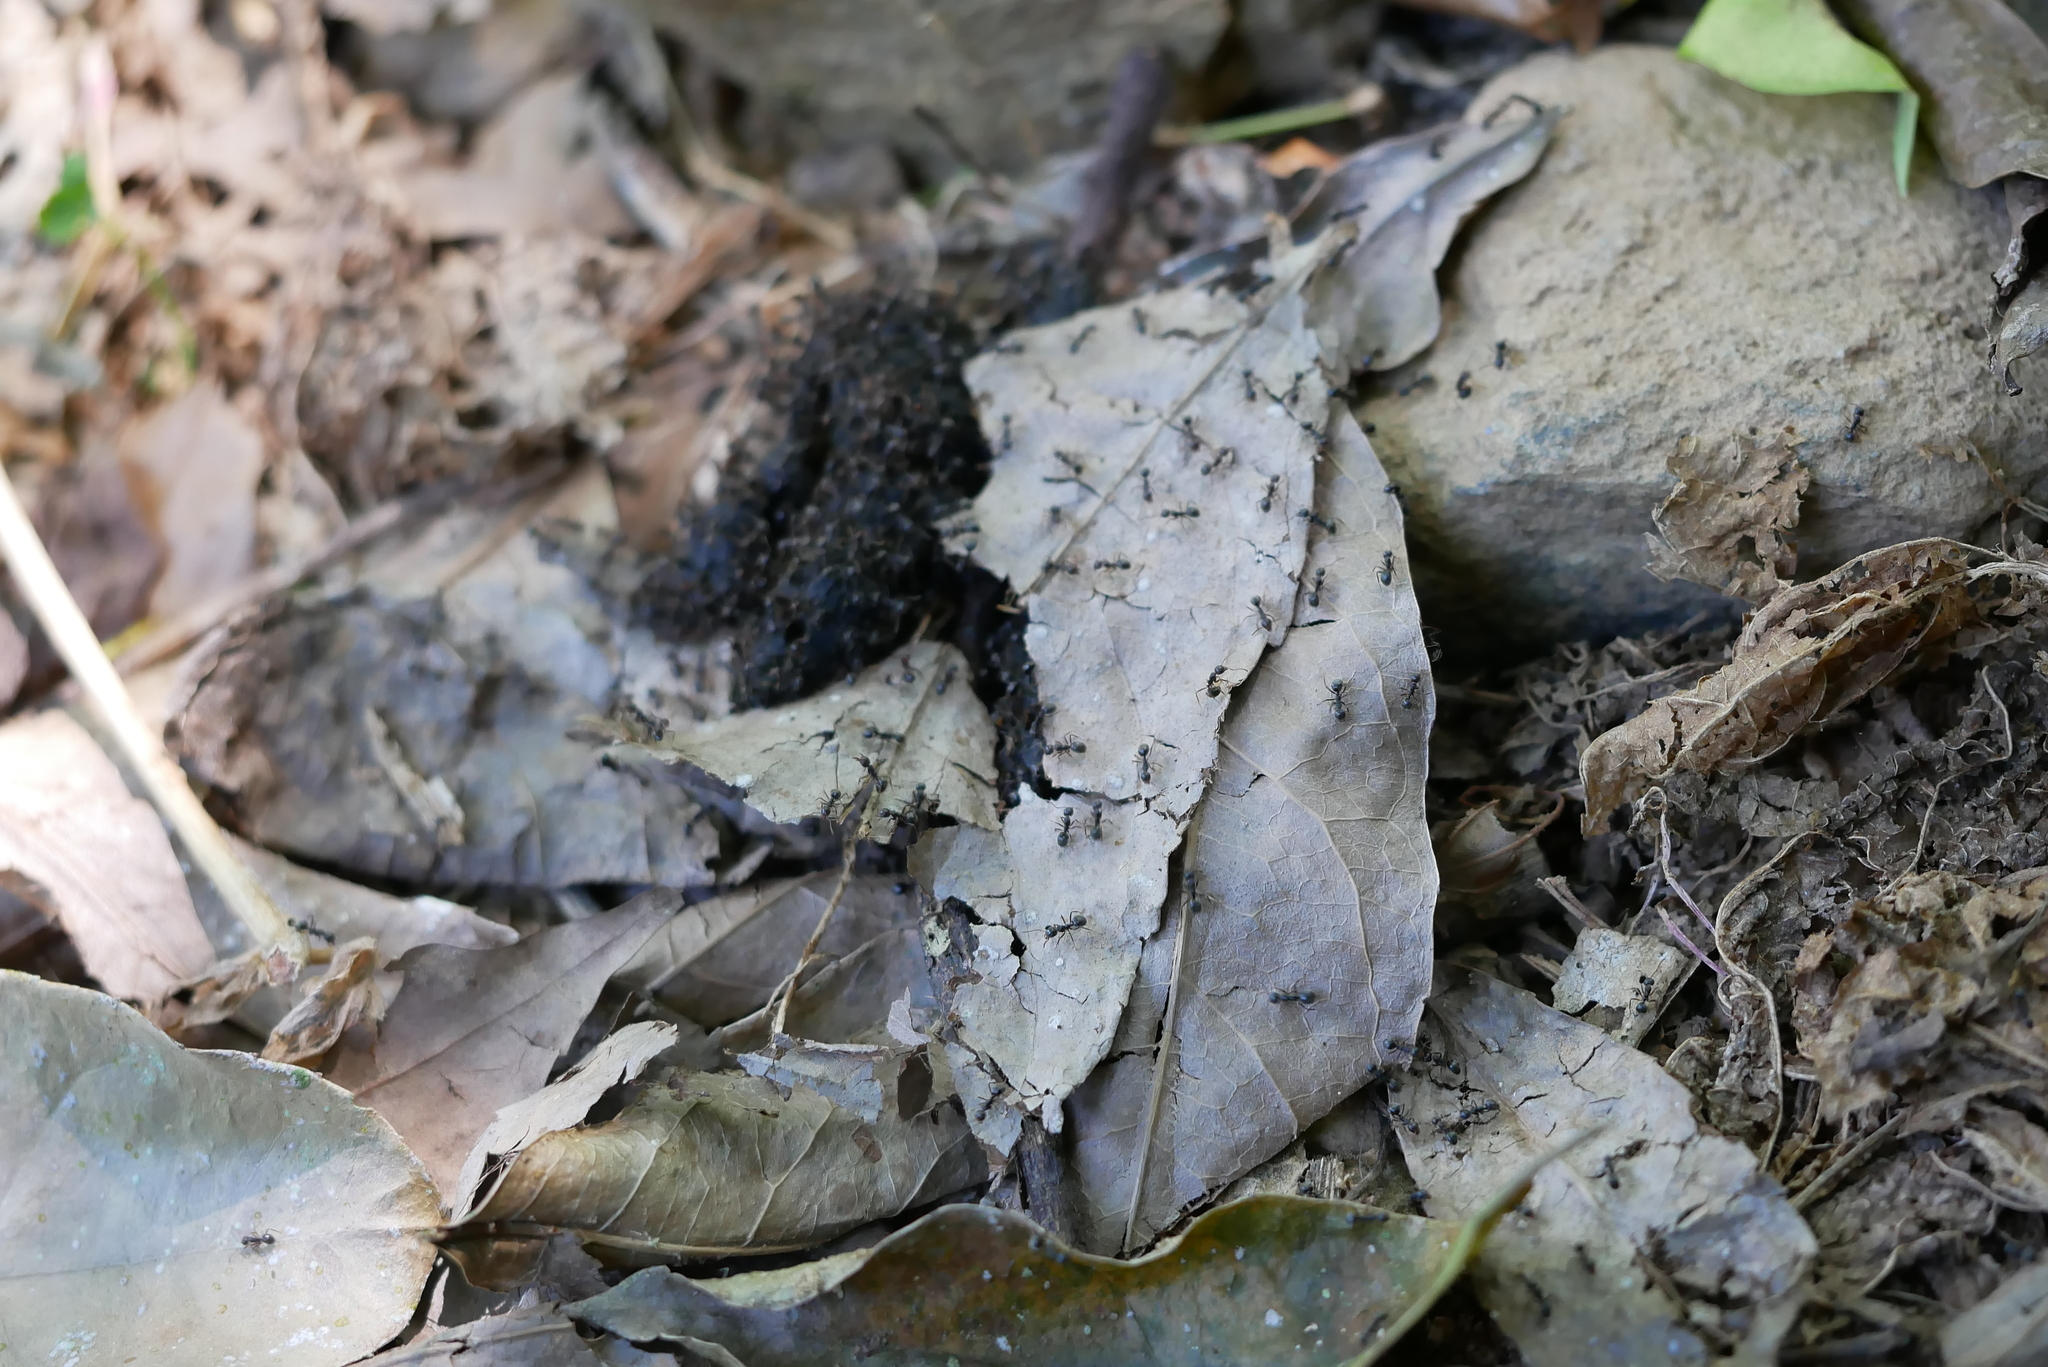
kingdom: Animalia
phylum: Arthropoda
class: Insecta
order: Hymenoptera
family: Formicidae
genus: Dolichoderus
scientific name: Dolichoderus thoracicus
